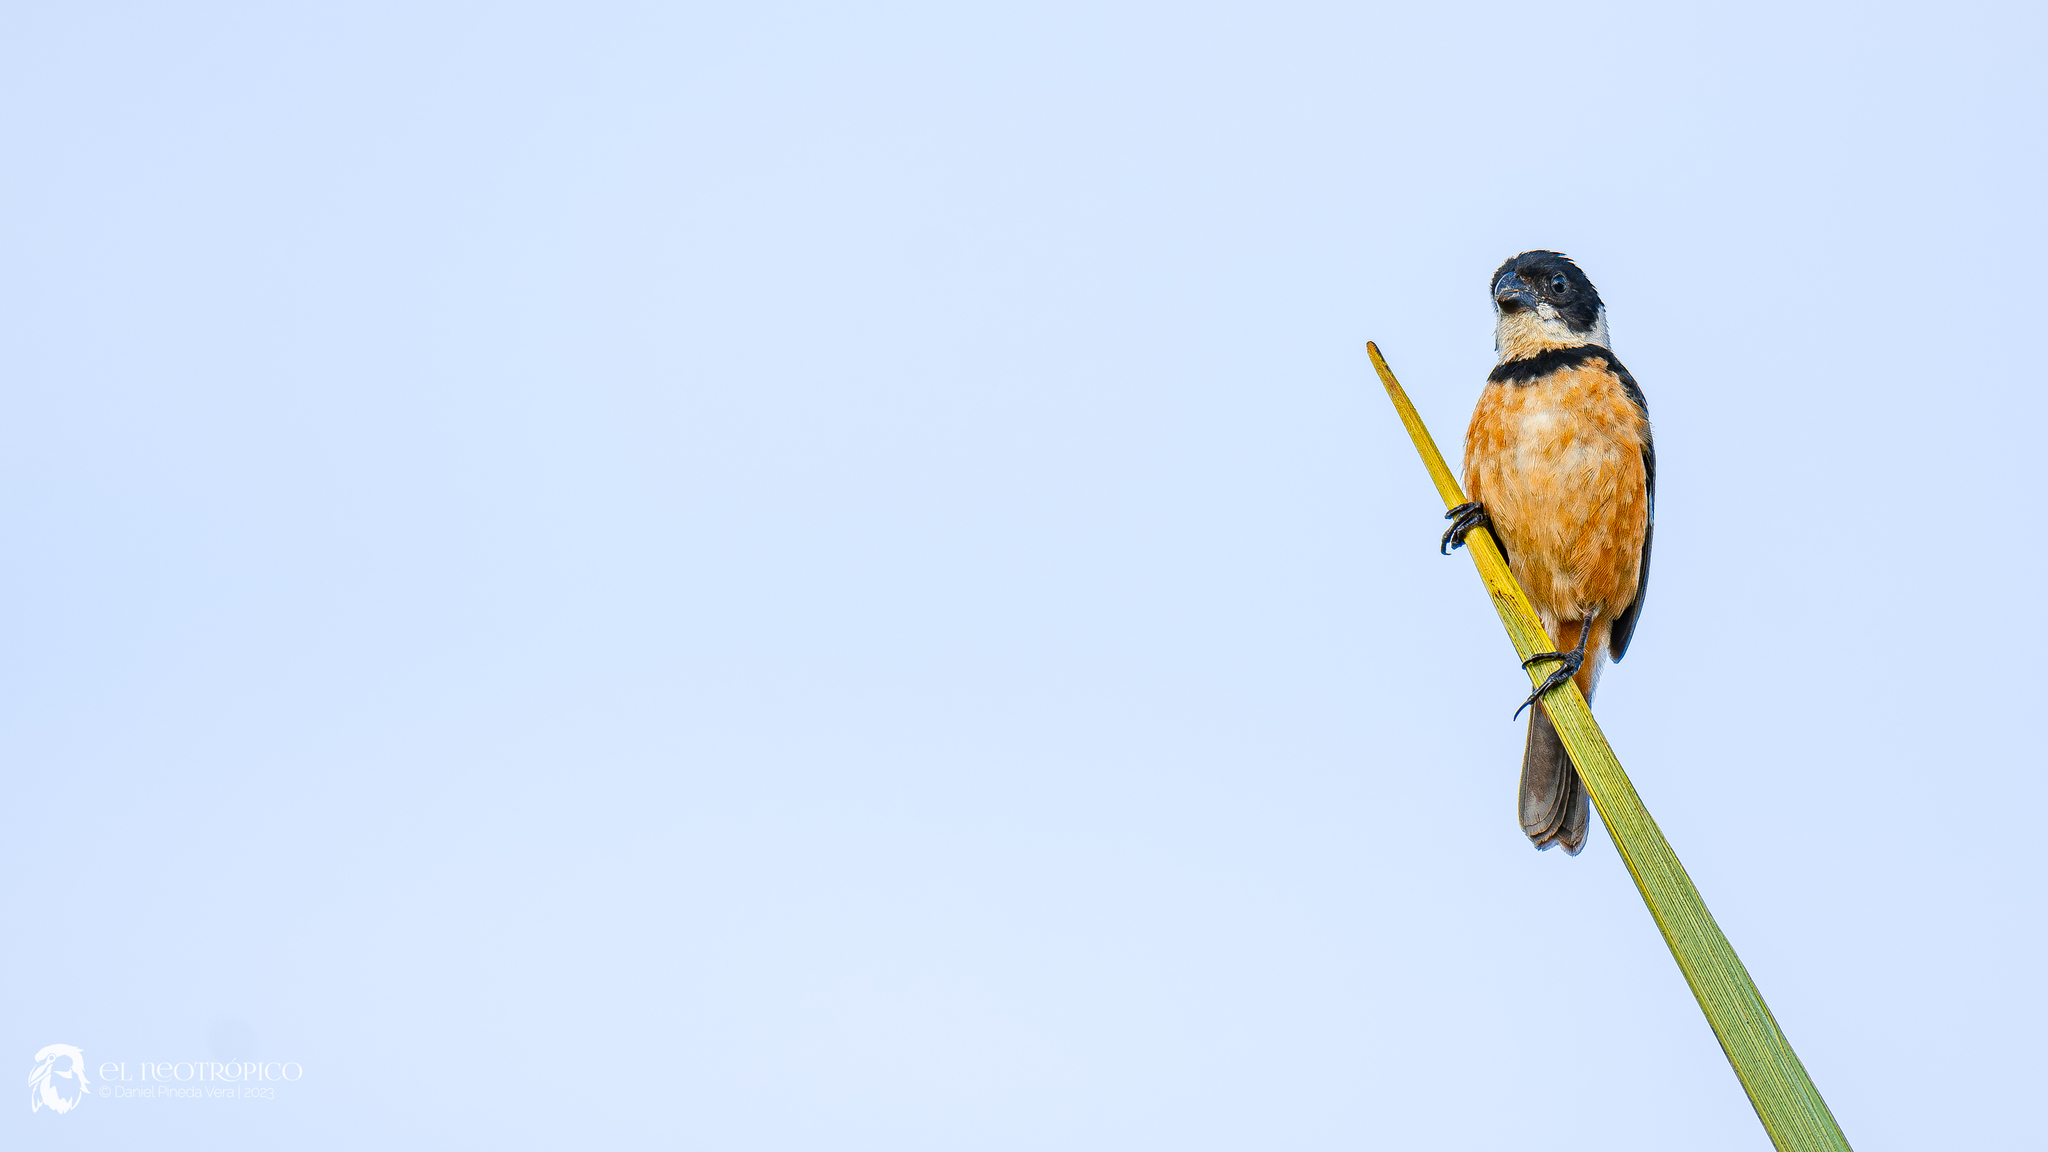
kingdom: Animalia
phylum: Chordata
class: Aves
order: Passeriformes
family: Thraupidae
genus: Sporophila
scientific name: Sporophila torqueola
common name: White-collared seedeater
